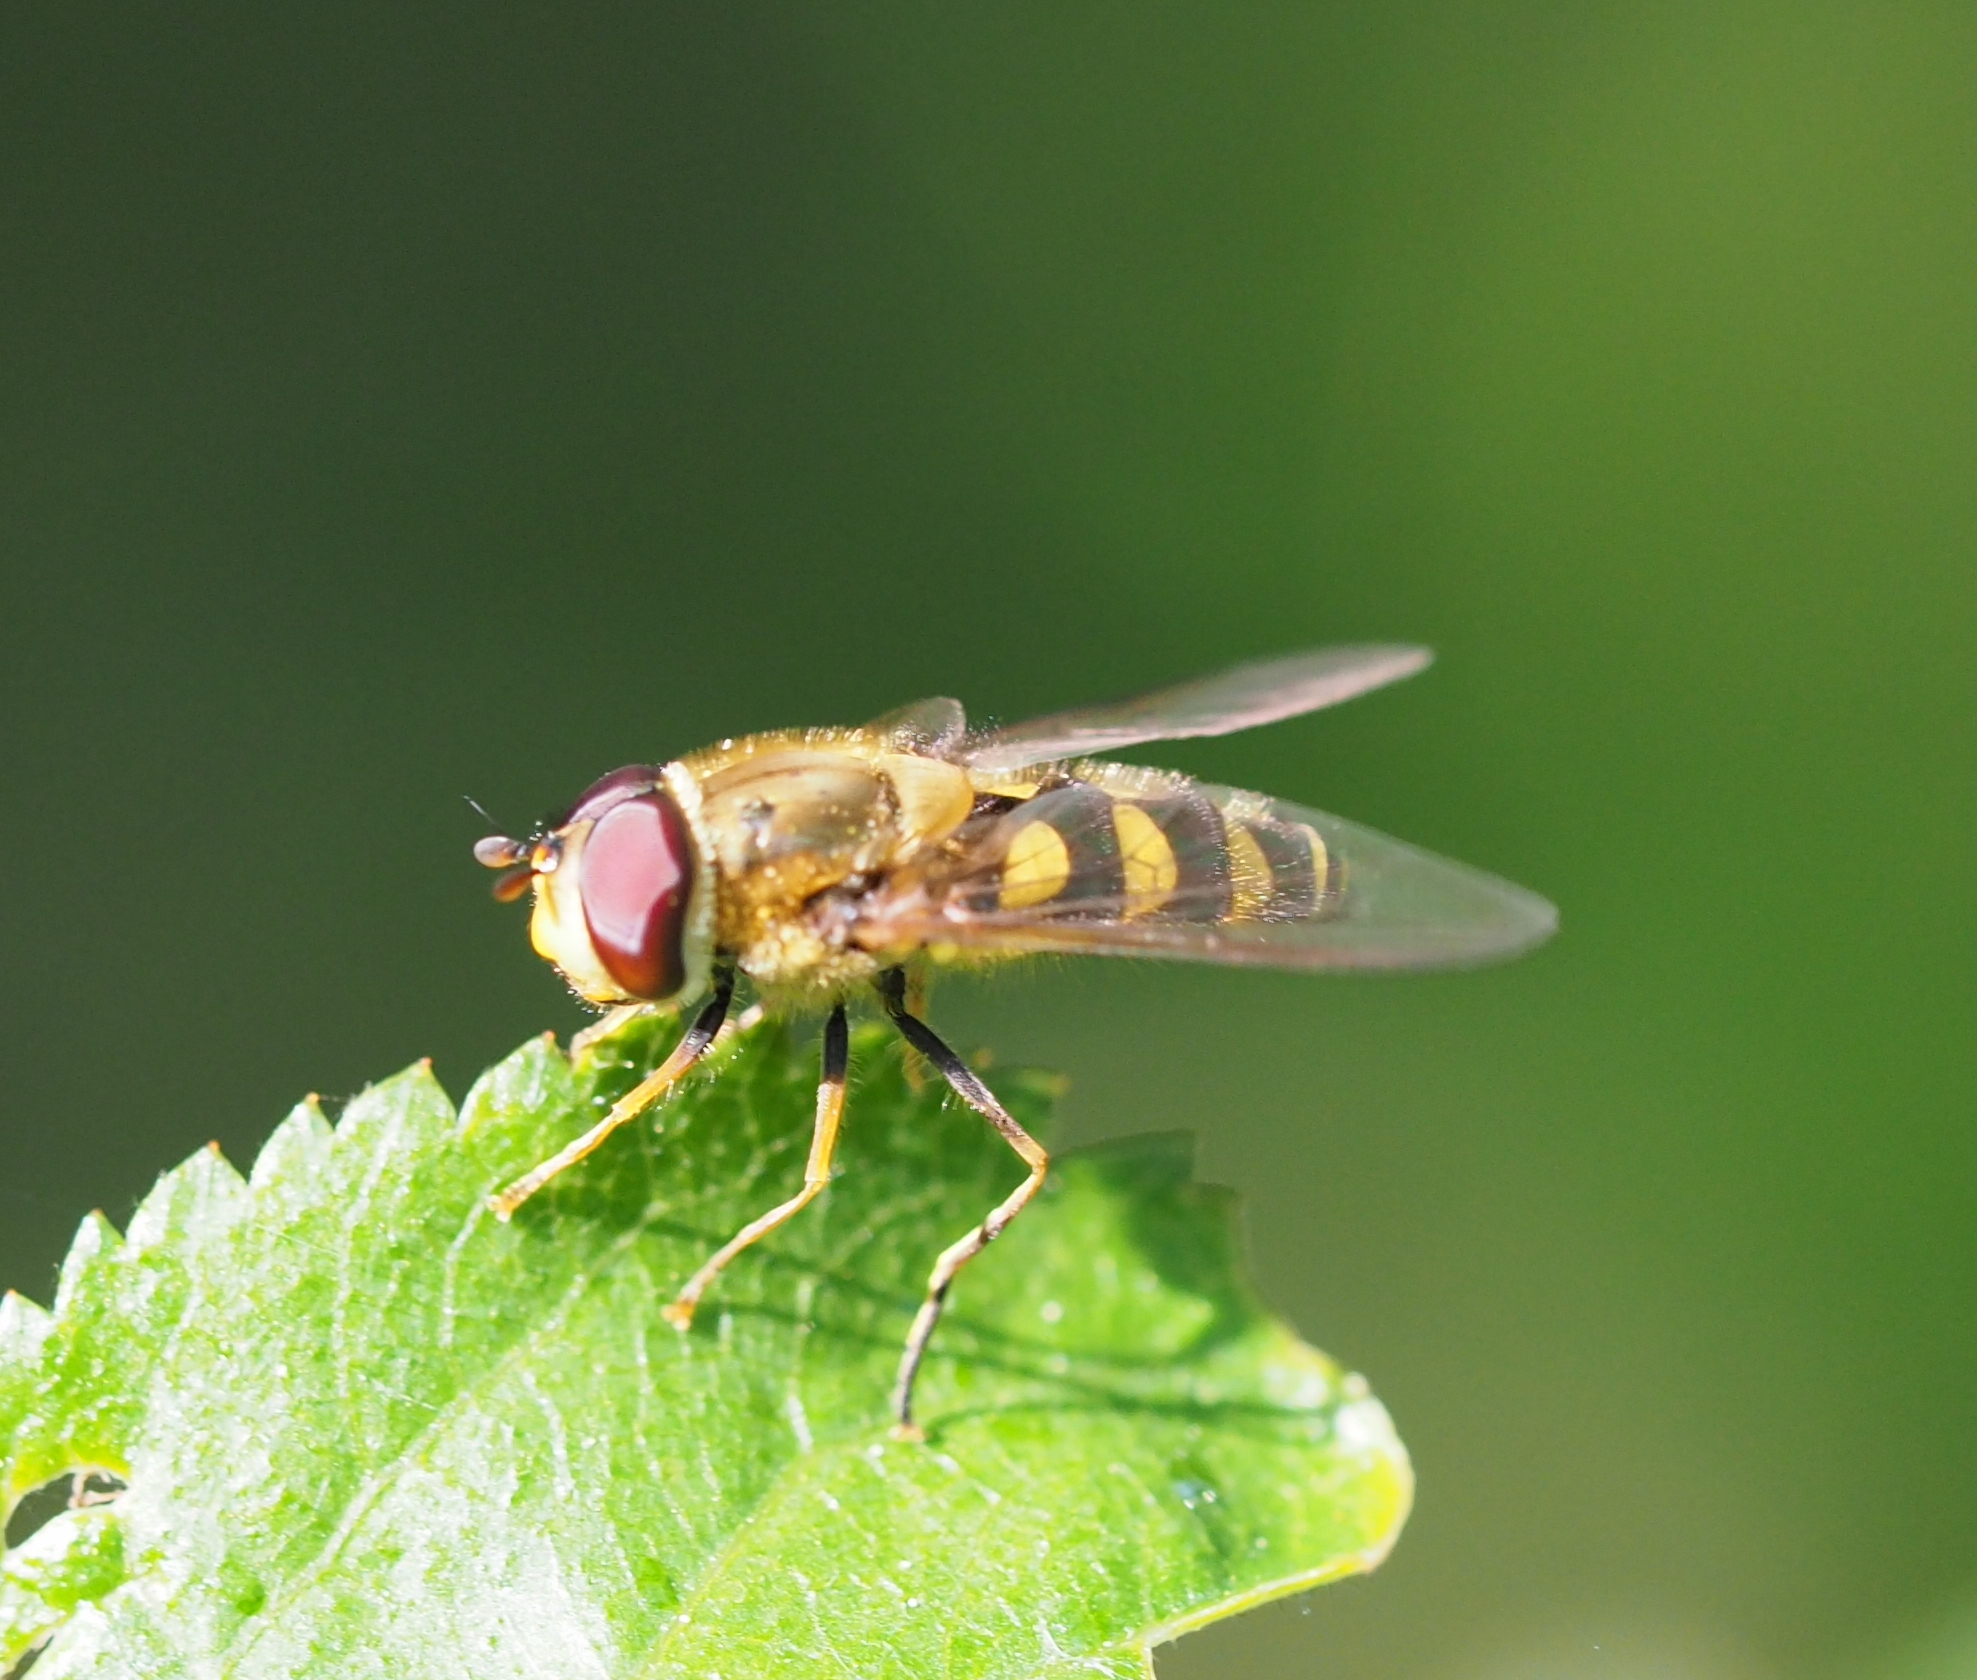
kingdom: Animalia
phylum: Arthropoda
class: Insecta
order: Diptera
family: Syrphidae
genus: Syrphus
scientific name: Syrphus
